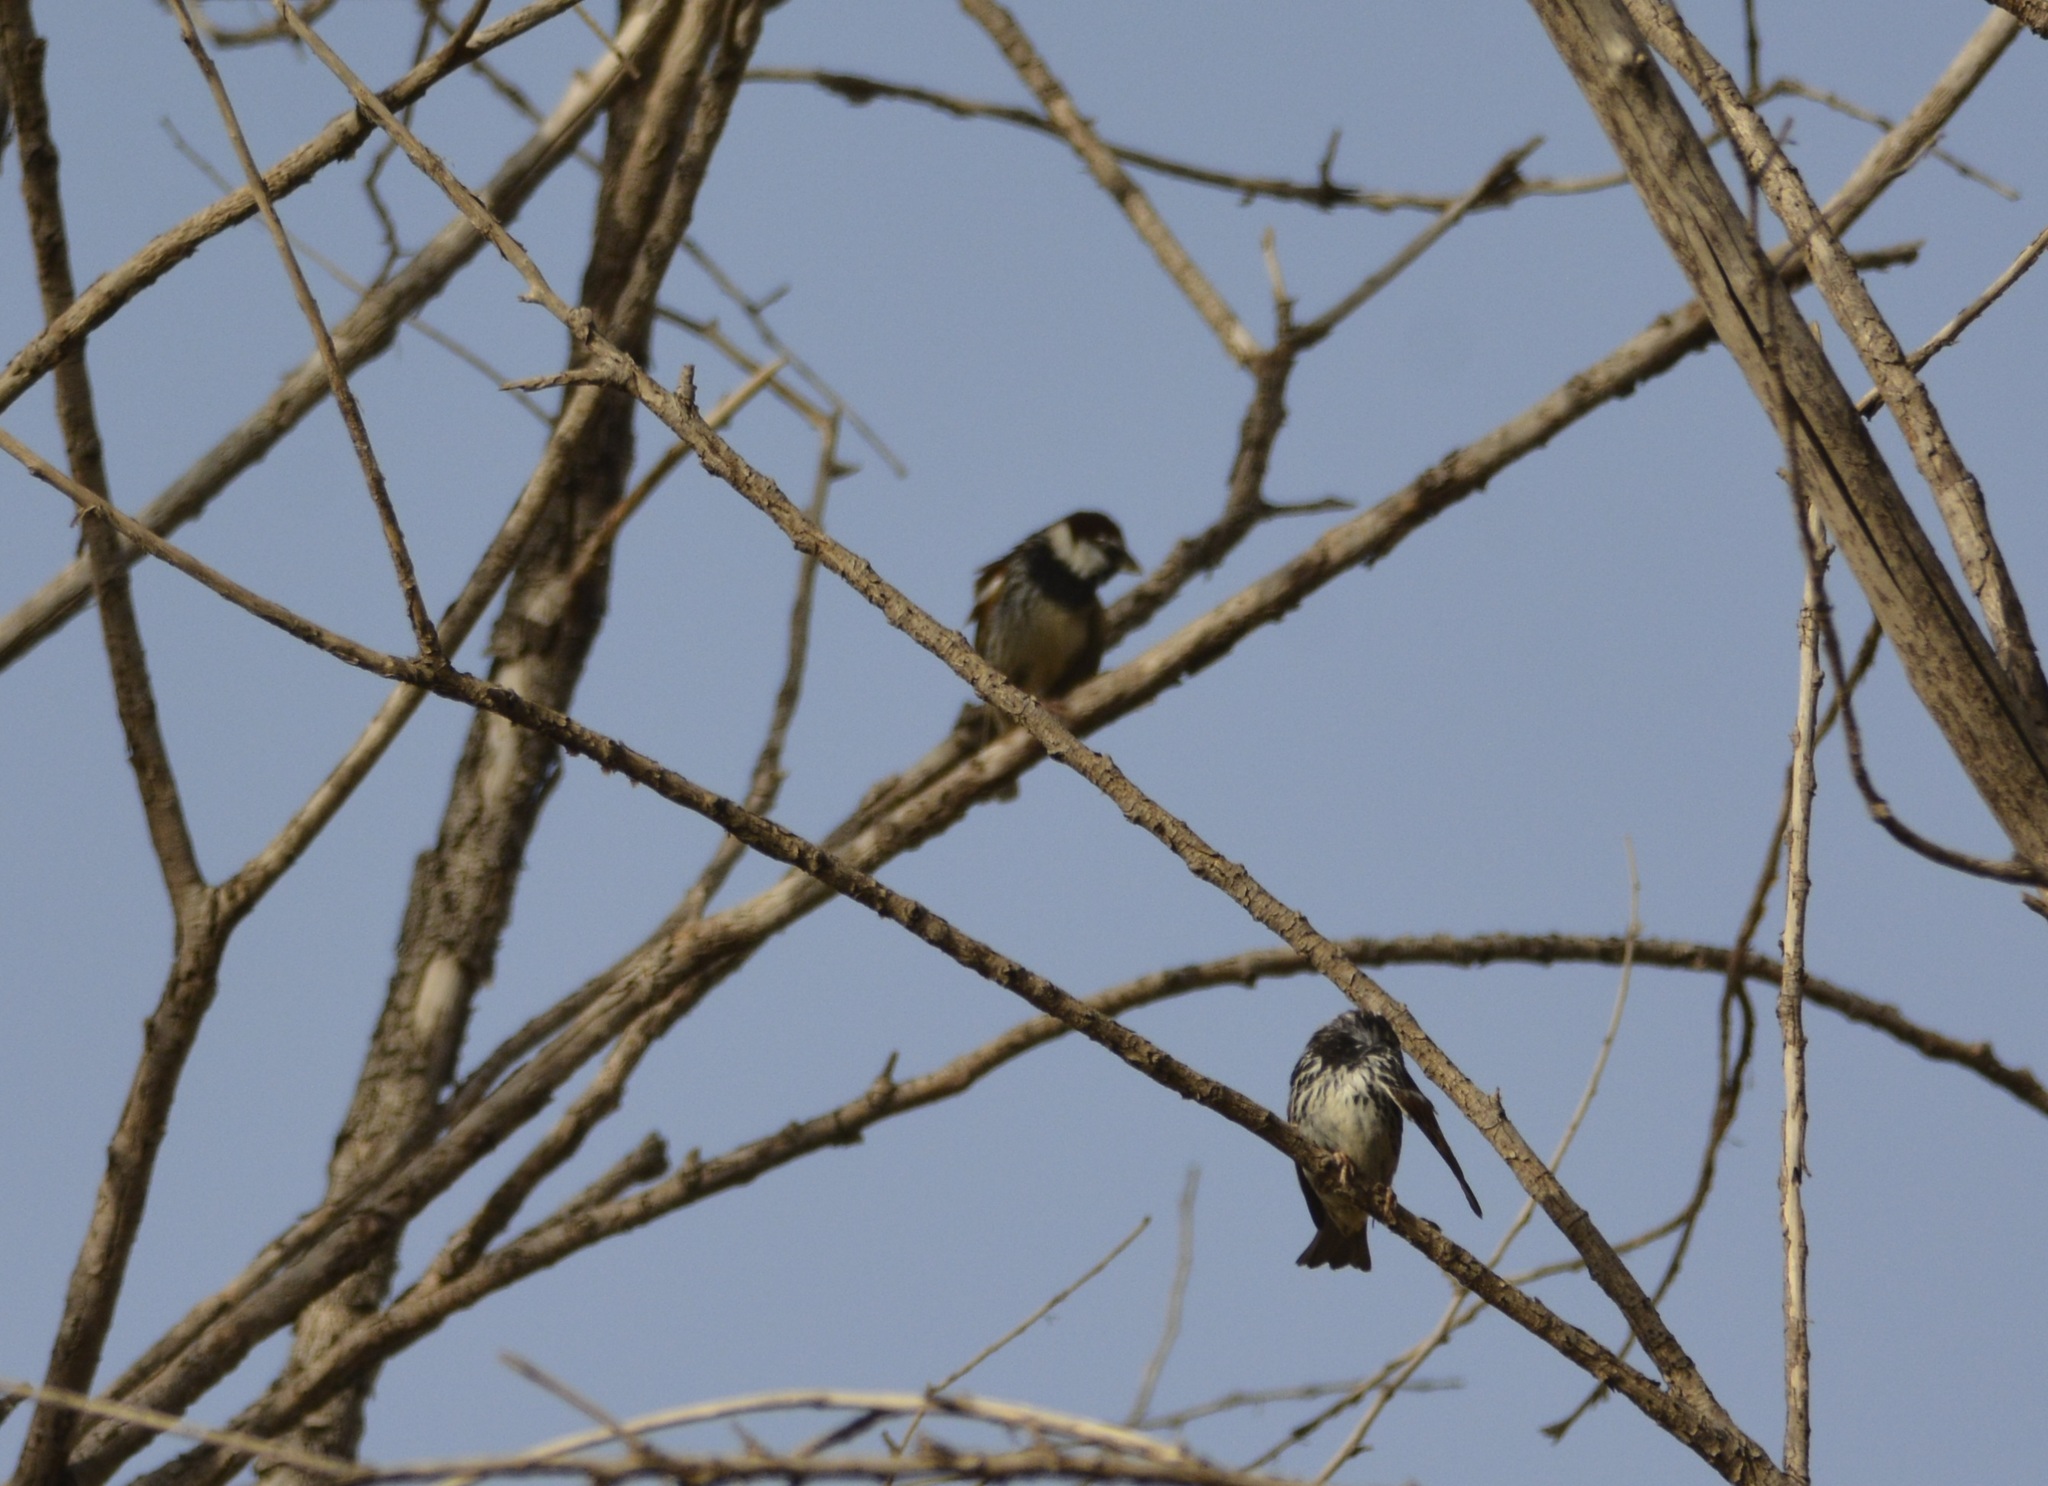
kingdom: Animalia
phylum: Chordata
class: Aves
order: Passeriformes
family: Passeridae
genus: Passer
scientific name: Passer hispaniolensis
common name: Spanish sparrow
